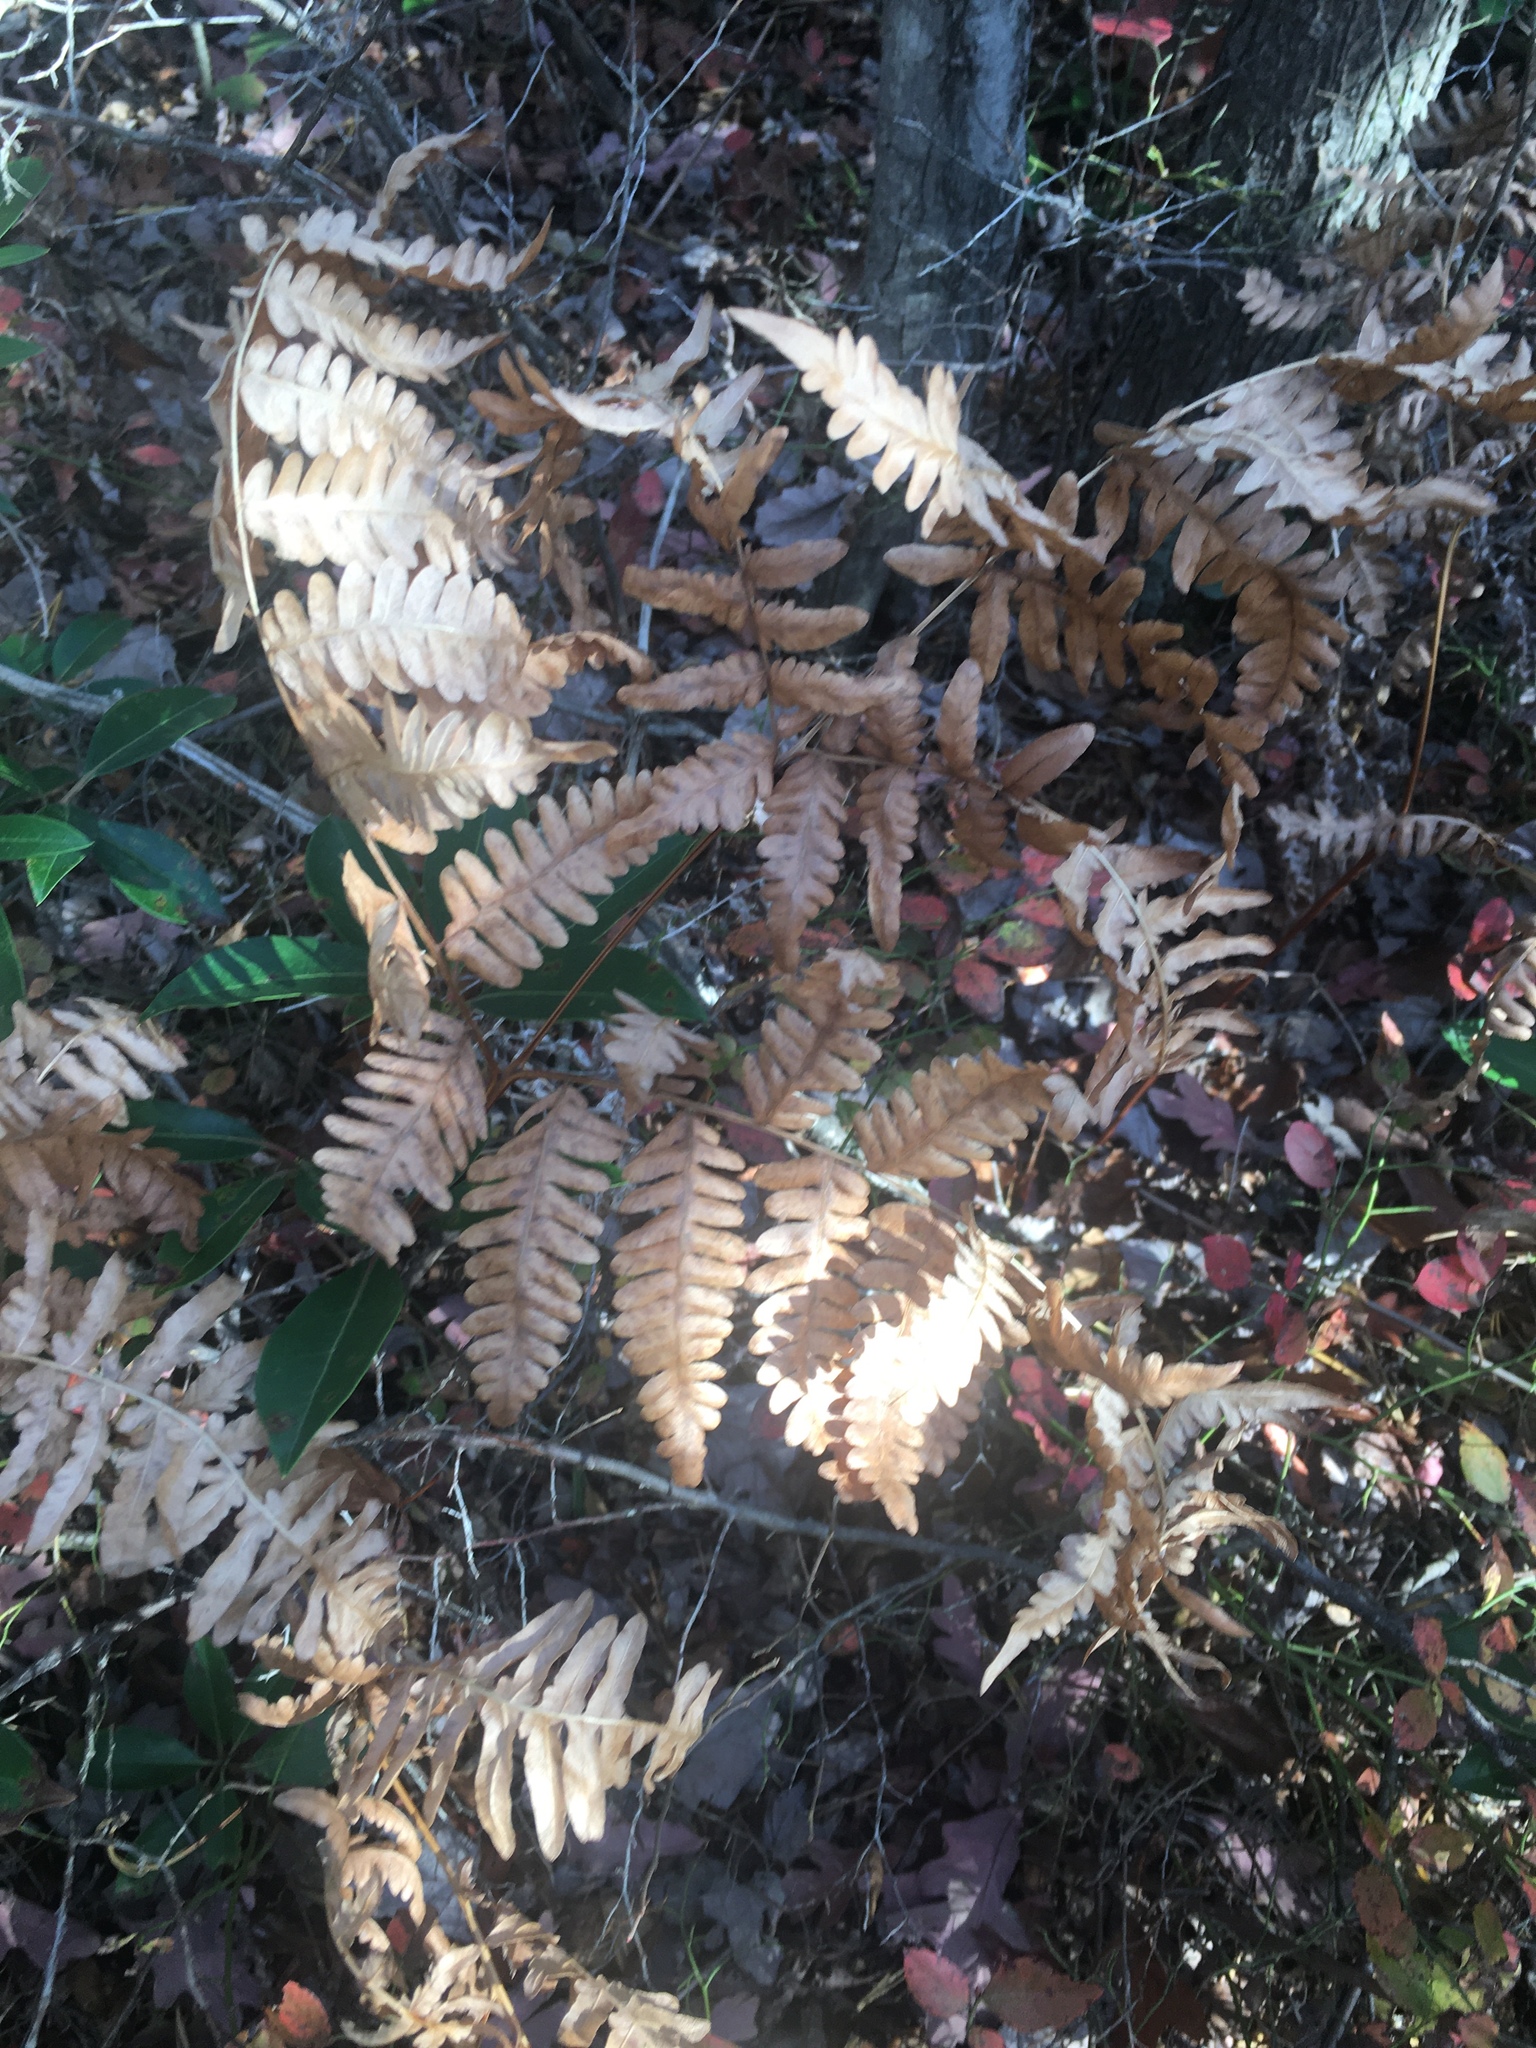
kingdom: Plantae
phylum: Tracheophyta
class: Polypodiopsida
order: Polypodiales
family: Dennstaedtiaceae
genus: Pteridium
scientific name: Pteridium aquilinum
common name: Bracken
